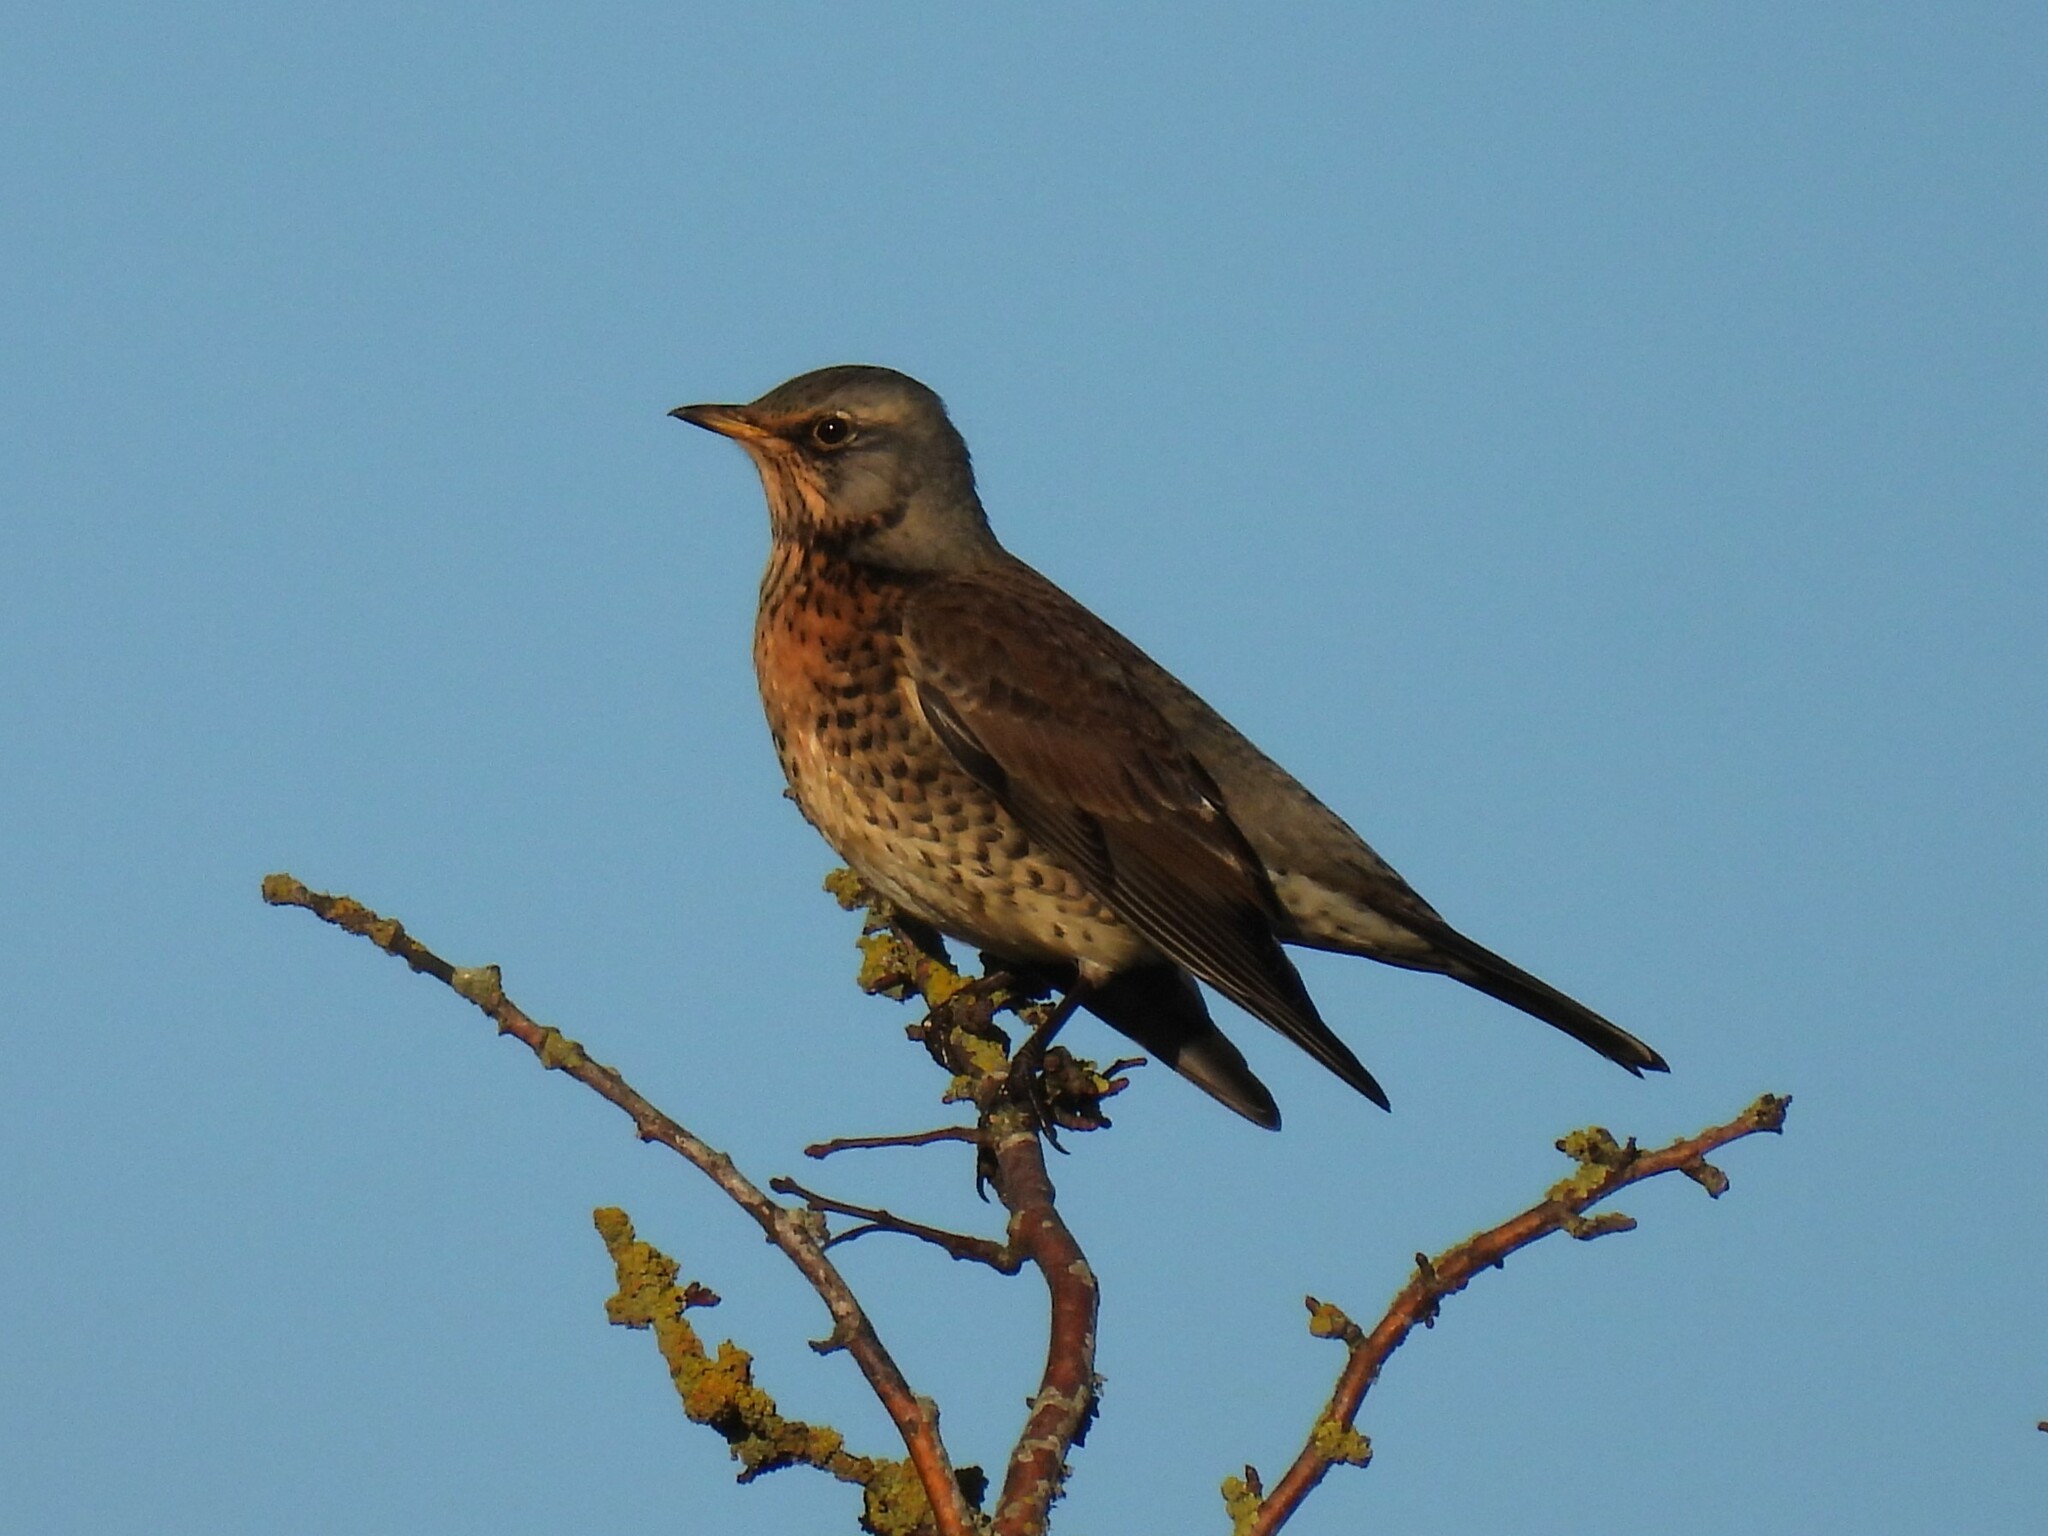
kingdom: Animalia
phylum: Chordata
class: Aves
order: Passeriformes
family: Turdidae
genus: Turdus
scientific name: Turdus pilaris
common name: Fieldfare
